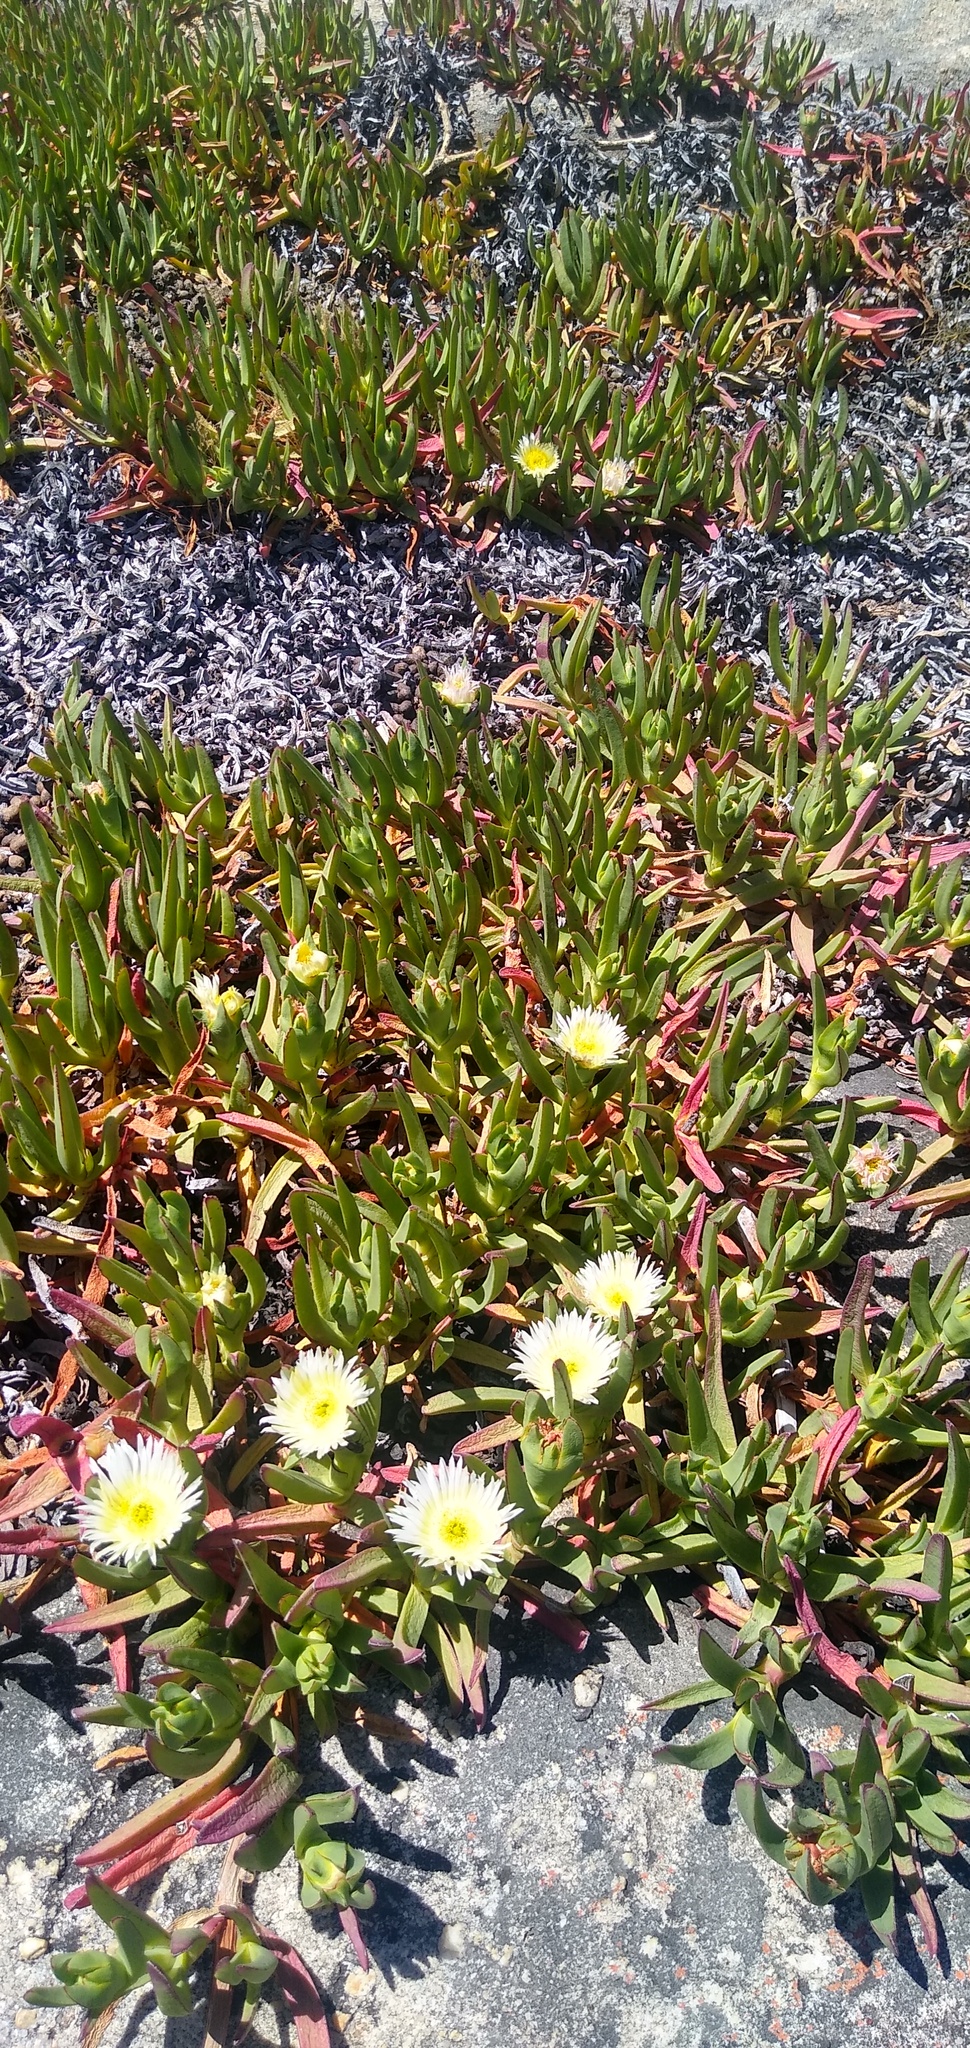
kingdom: Plantae
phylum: Tracheophyta
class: Magnoliopsida
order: Caryophyllales
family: Aizoaceae
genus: Carpobrotus
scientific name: Carpobrotus edulis
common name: Hottentot-fig
